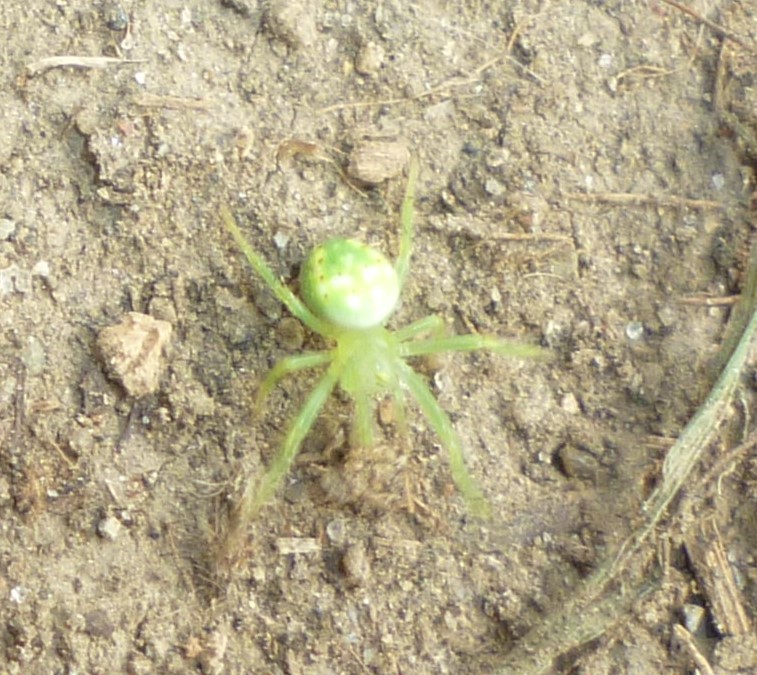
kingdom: Animalia
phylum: Arthropoda
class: Arachnida
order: Araneae
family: Araneidae
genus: Araneus
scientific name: Araneus cingulatus
